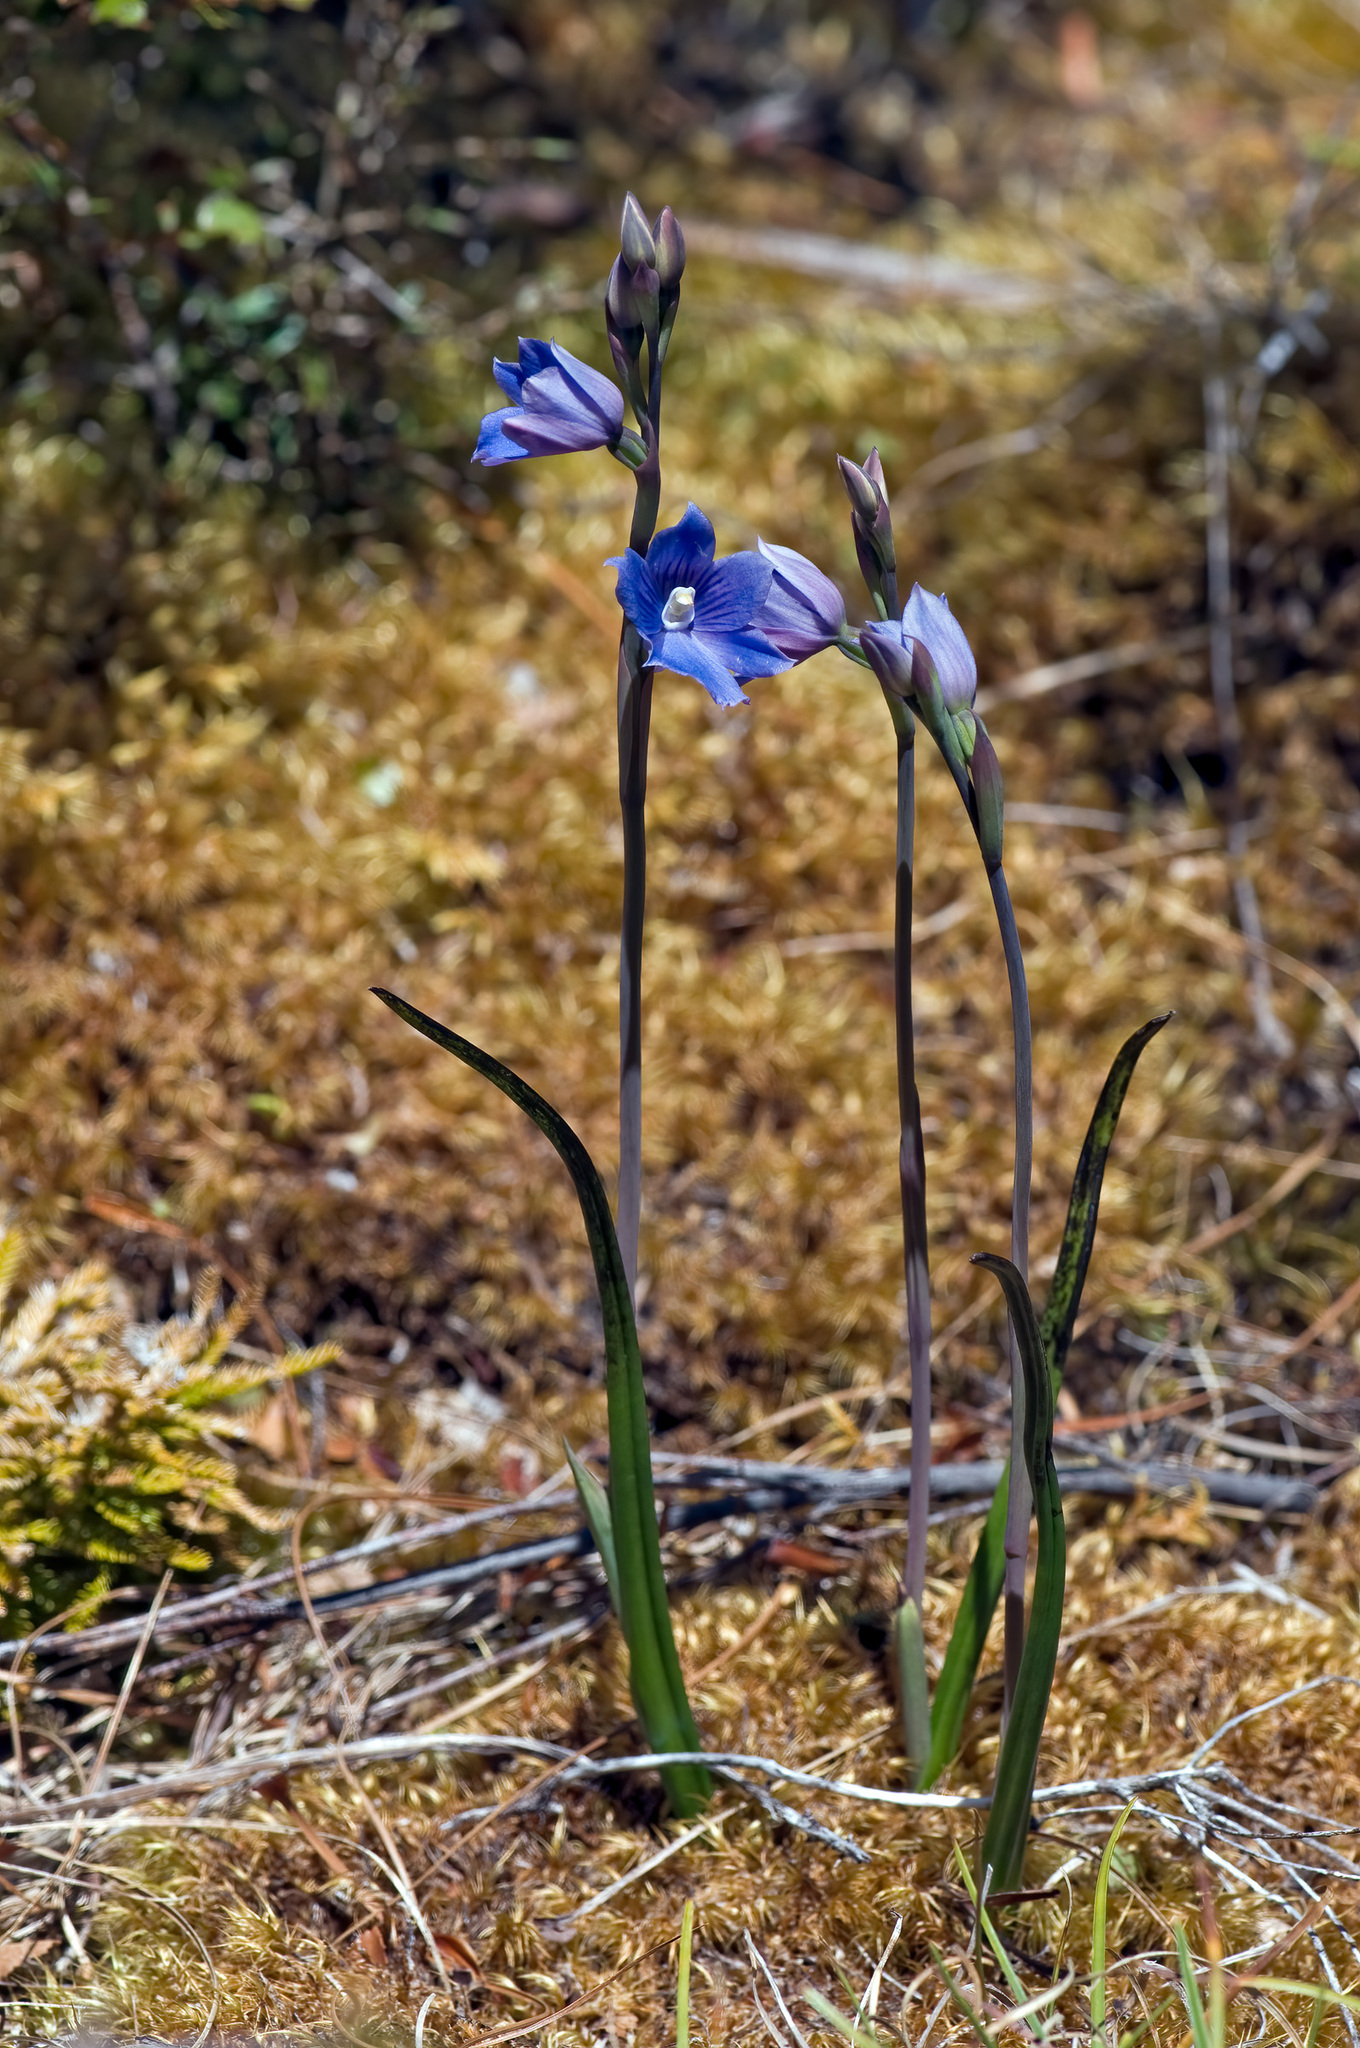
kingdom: Plantae
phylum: Tracheophyta
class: Liliopsida
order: Asparagales
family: Orchidaceae
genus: Thelymitra
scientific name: Thelymitra cyanea
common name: Blue sun-orchid
